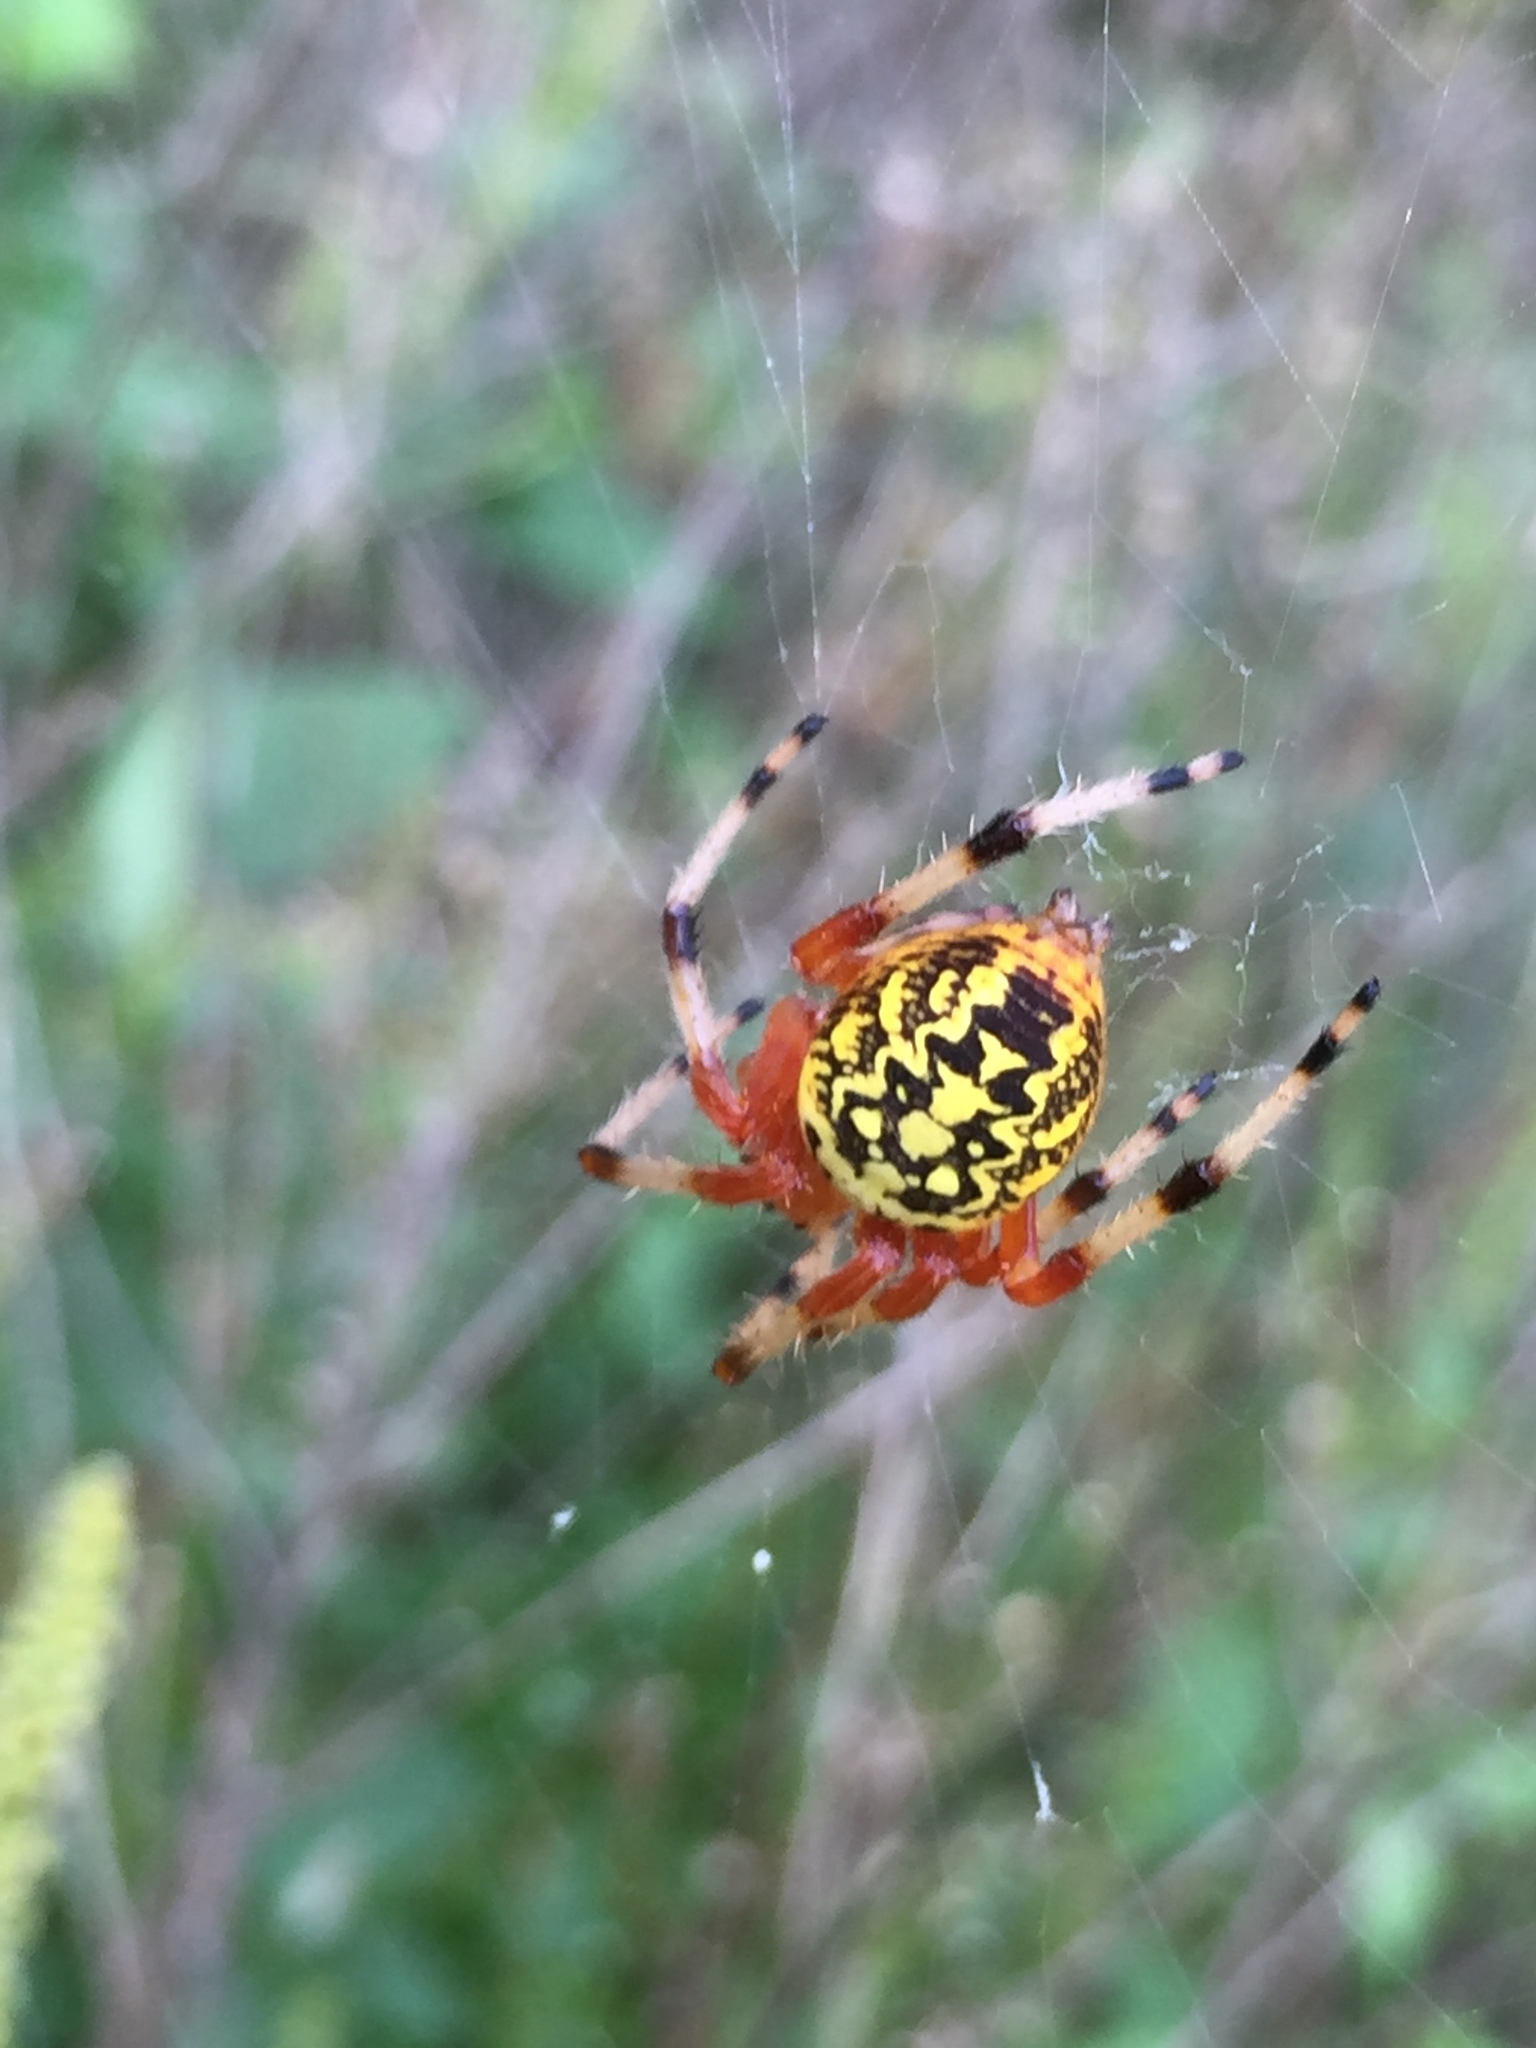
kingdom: Animalia
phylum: Arthropoda
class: Arachnida
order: Araneae
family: Araneidae
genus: Araneus
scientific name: Araneus marmoreus
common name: Marbled orbweaver
